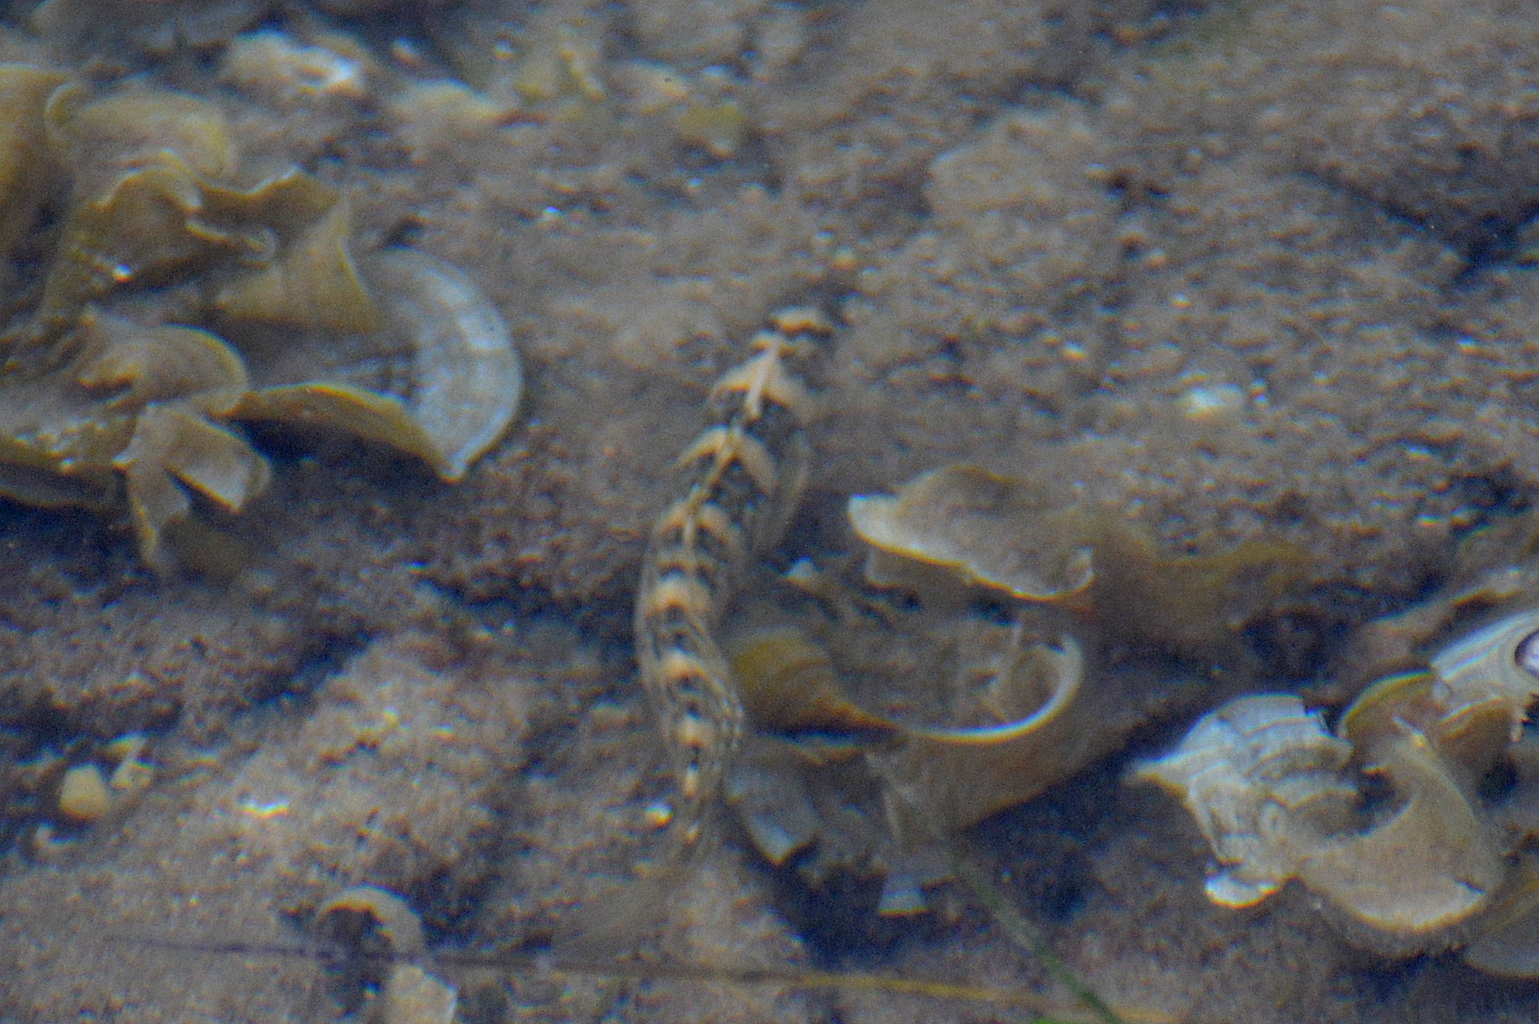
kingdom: Animalia
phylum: Chordata
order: Perciformes
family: Blenniidae
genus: Salaria
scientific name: Salaria pavo
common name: Peacock blenny
